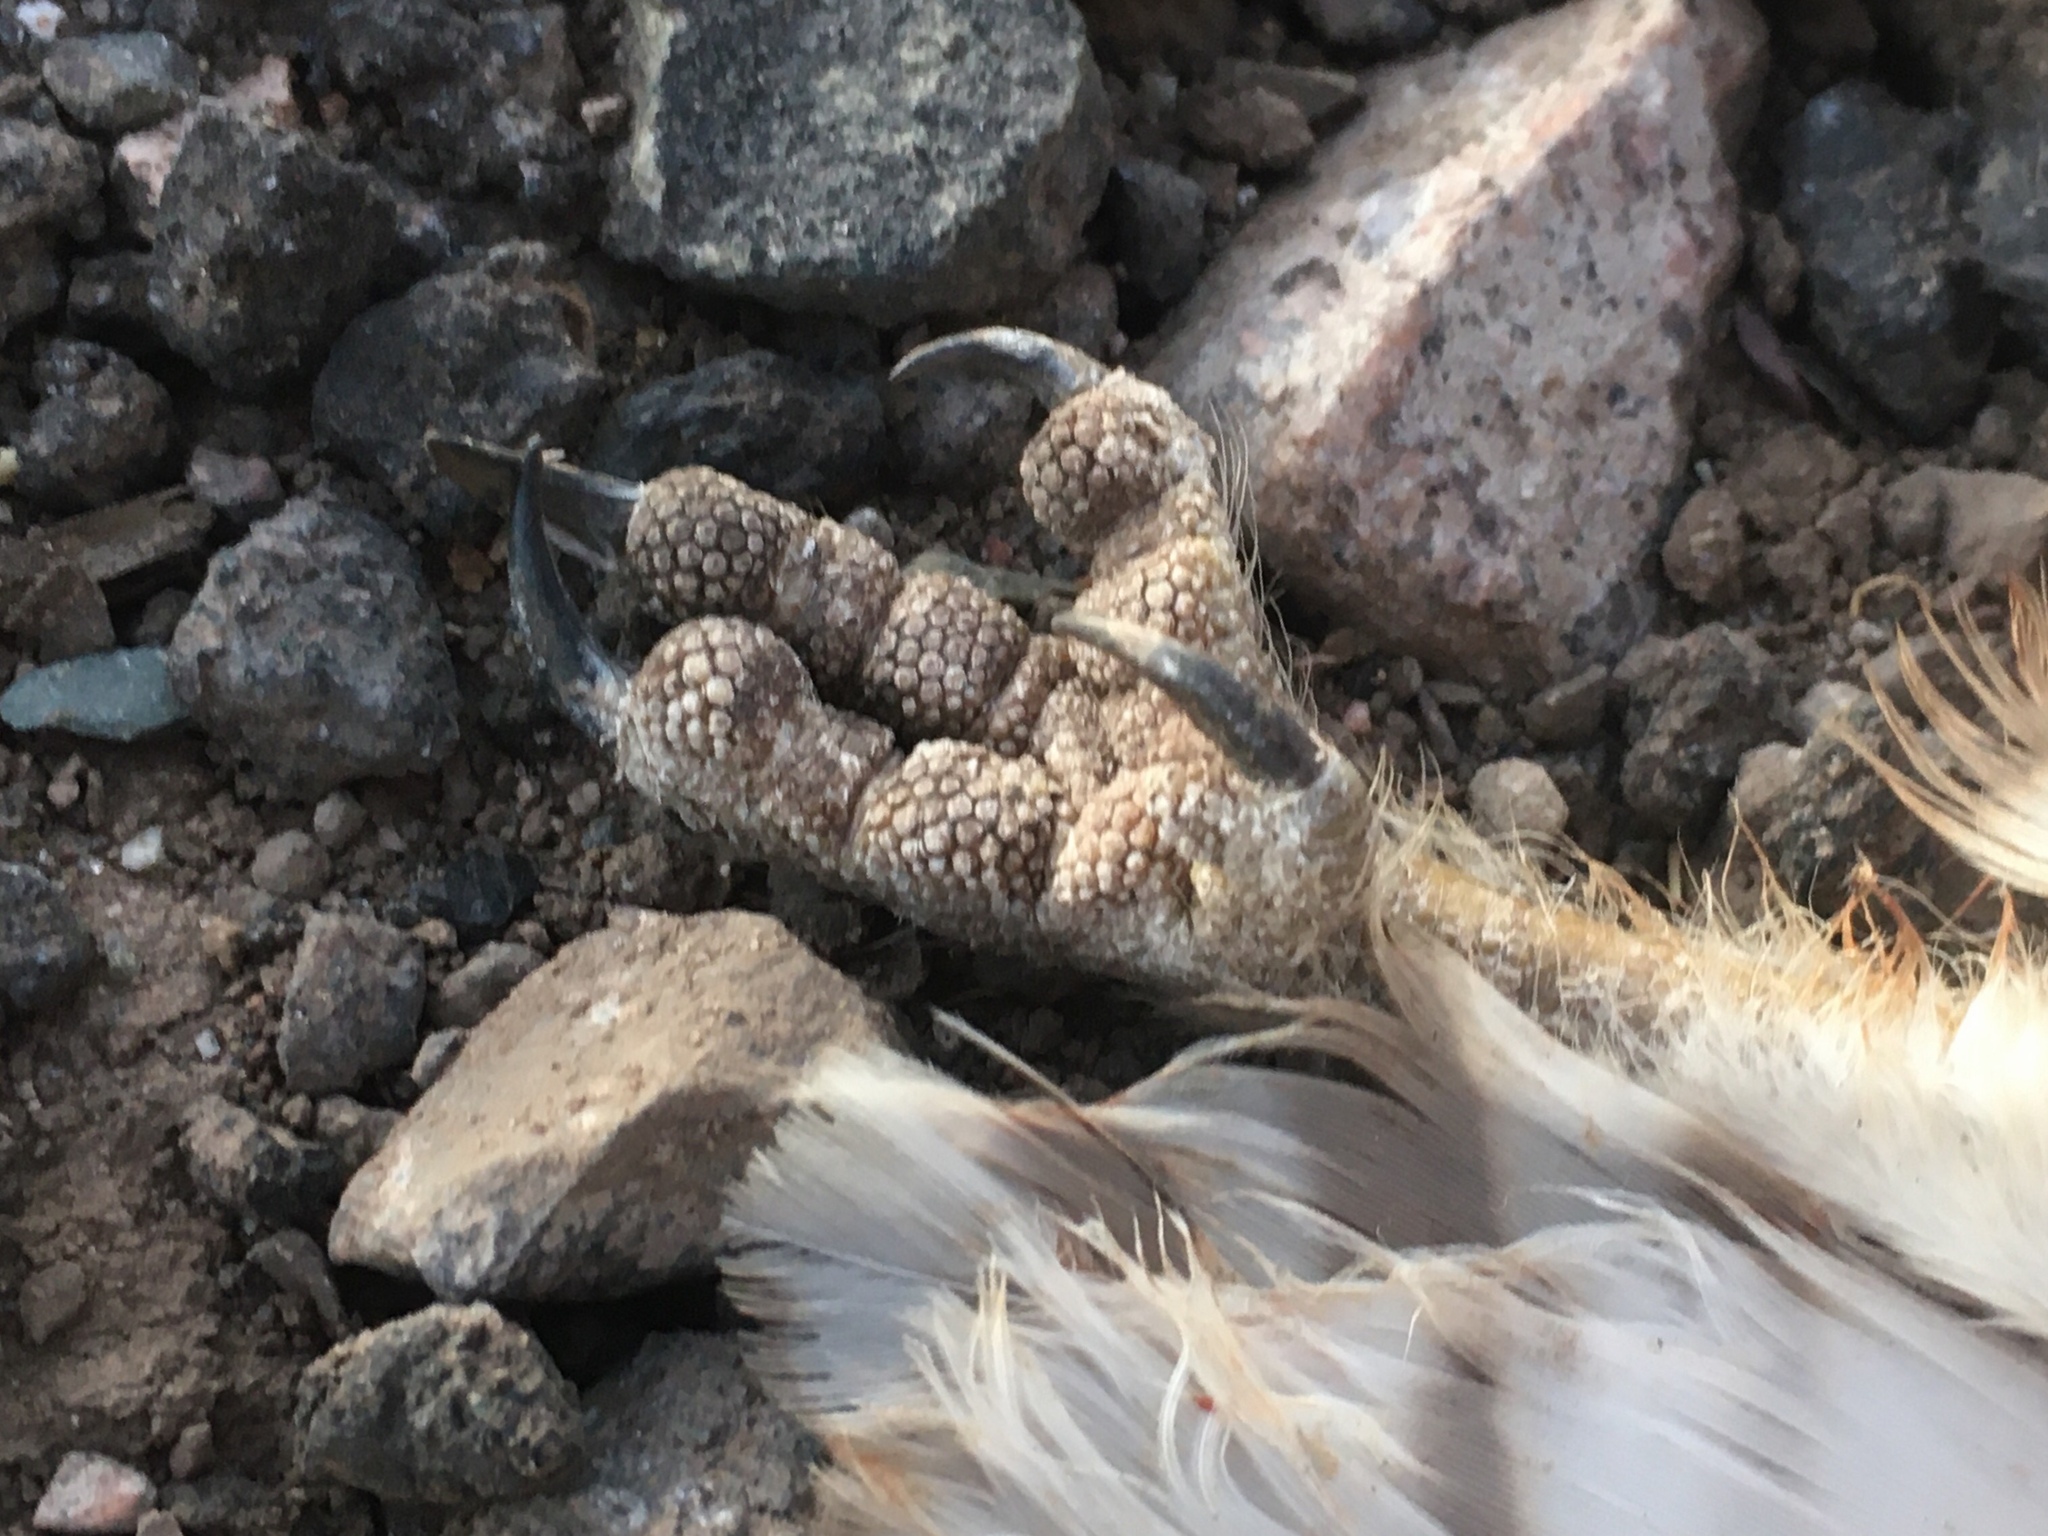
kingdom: Animalia
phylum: Chordata
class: Aves
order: Strigiformes
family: Strigidae
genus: Athene
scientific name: Athene cunicularia
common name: Burrowing owl
